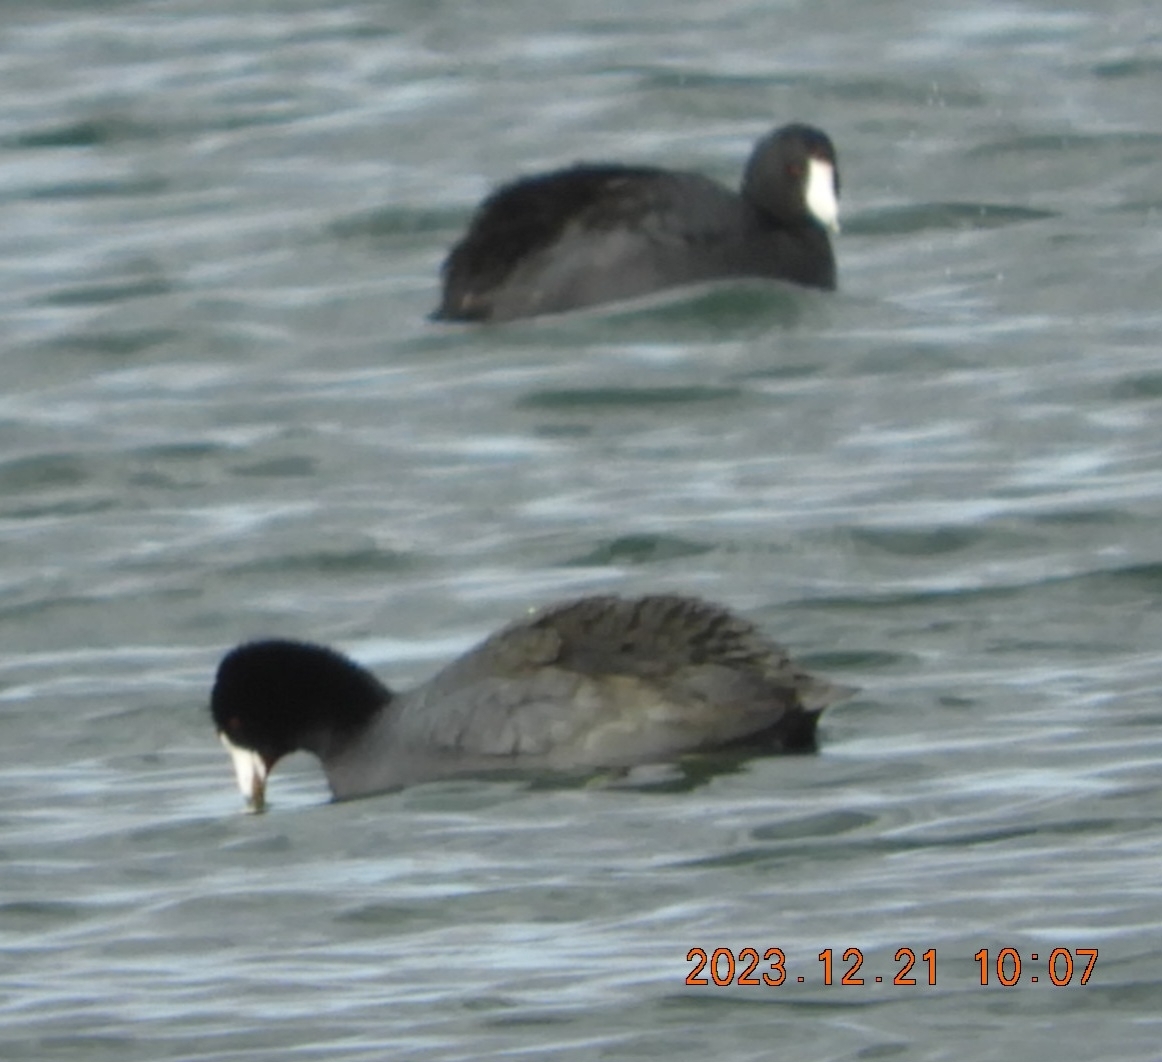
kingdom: Animalia
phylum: Chordata
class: Aves
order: Gruiformes
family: Rallidae
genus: Fulica
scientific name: Fulica americana
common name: American coot
